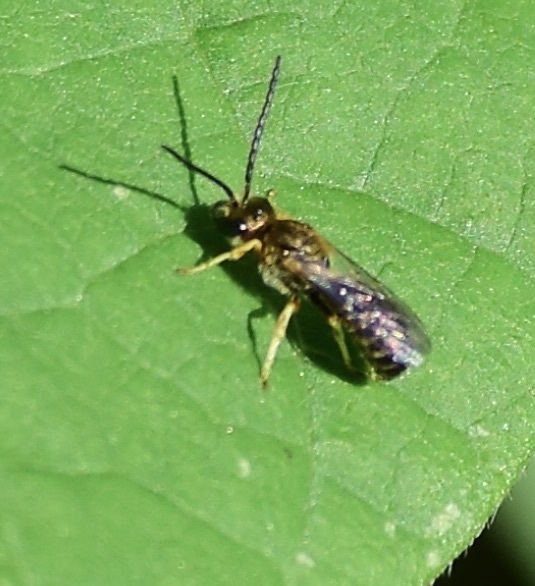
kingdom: Animalia
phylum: Arthropoda
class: Insecta
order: Hymenoptera
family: Halictidae
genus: Halictus
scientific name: Halictus confusus
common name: Southern bronze furrow bee
